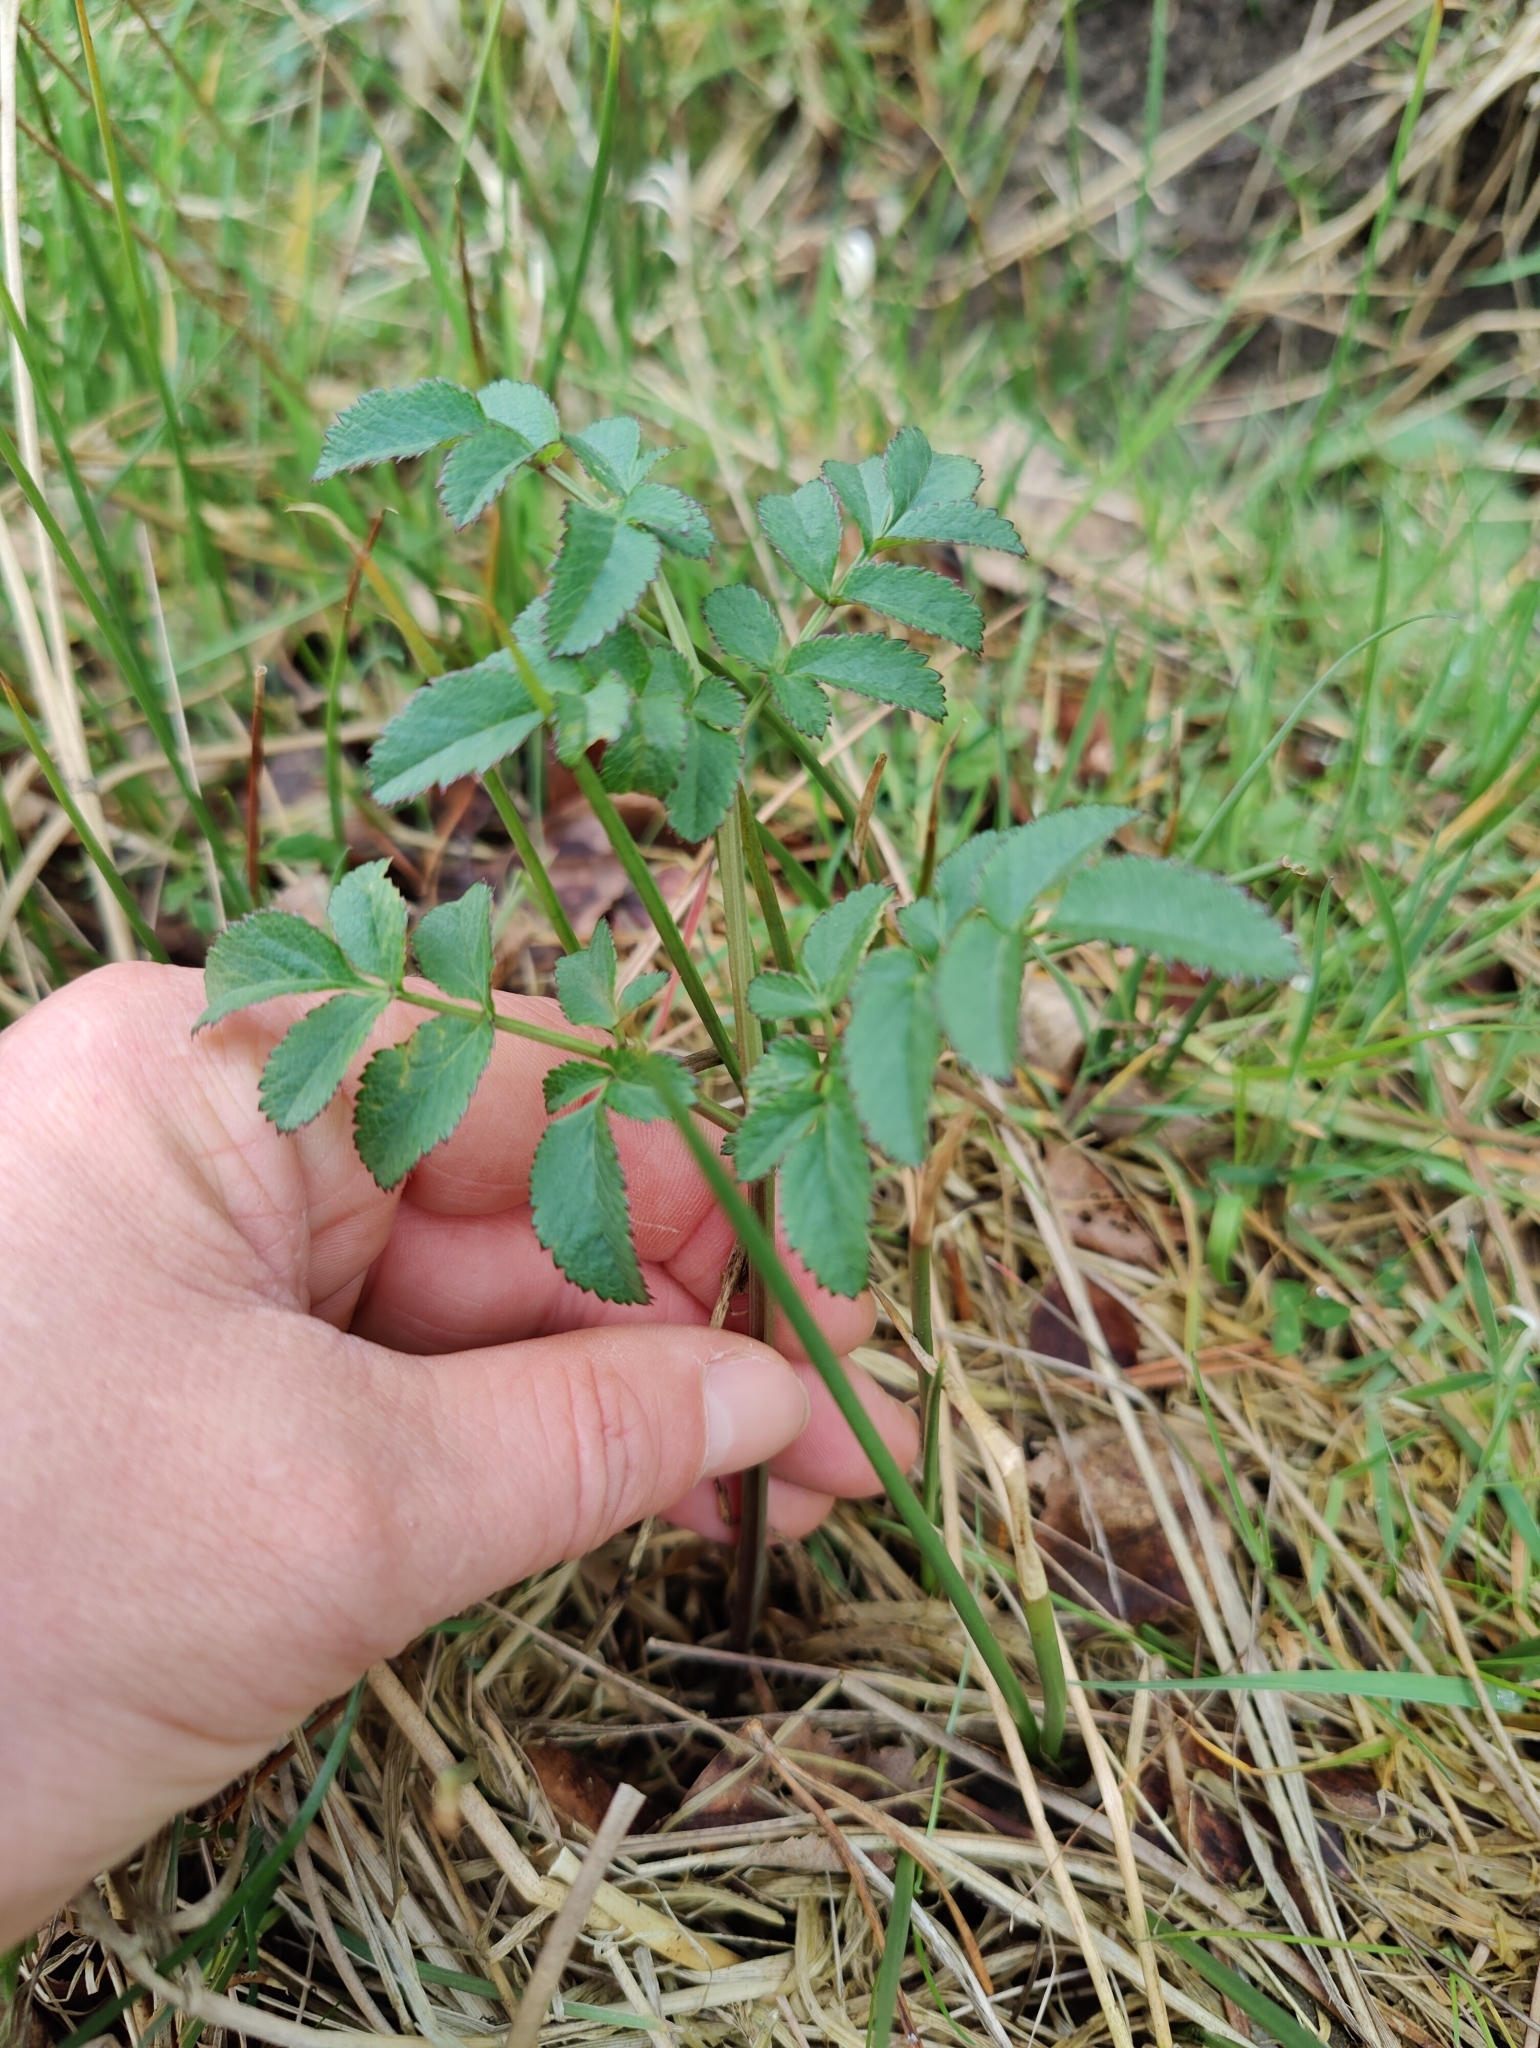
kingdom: Plantae
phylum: Tracheophyta
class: Magnoliopsida
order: Apiales
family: Apiaceae
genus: Angelica
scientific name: Angelica sylvestris
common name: Wild angelica
